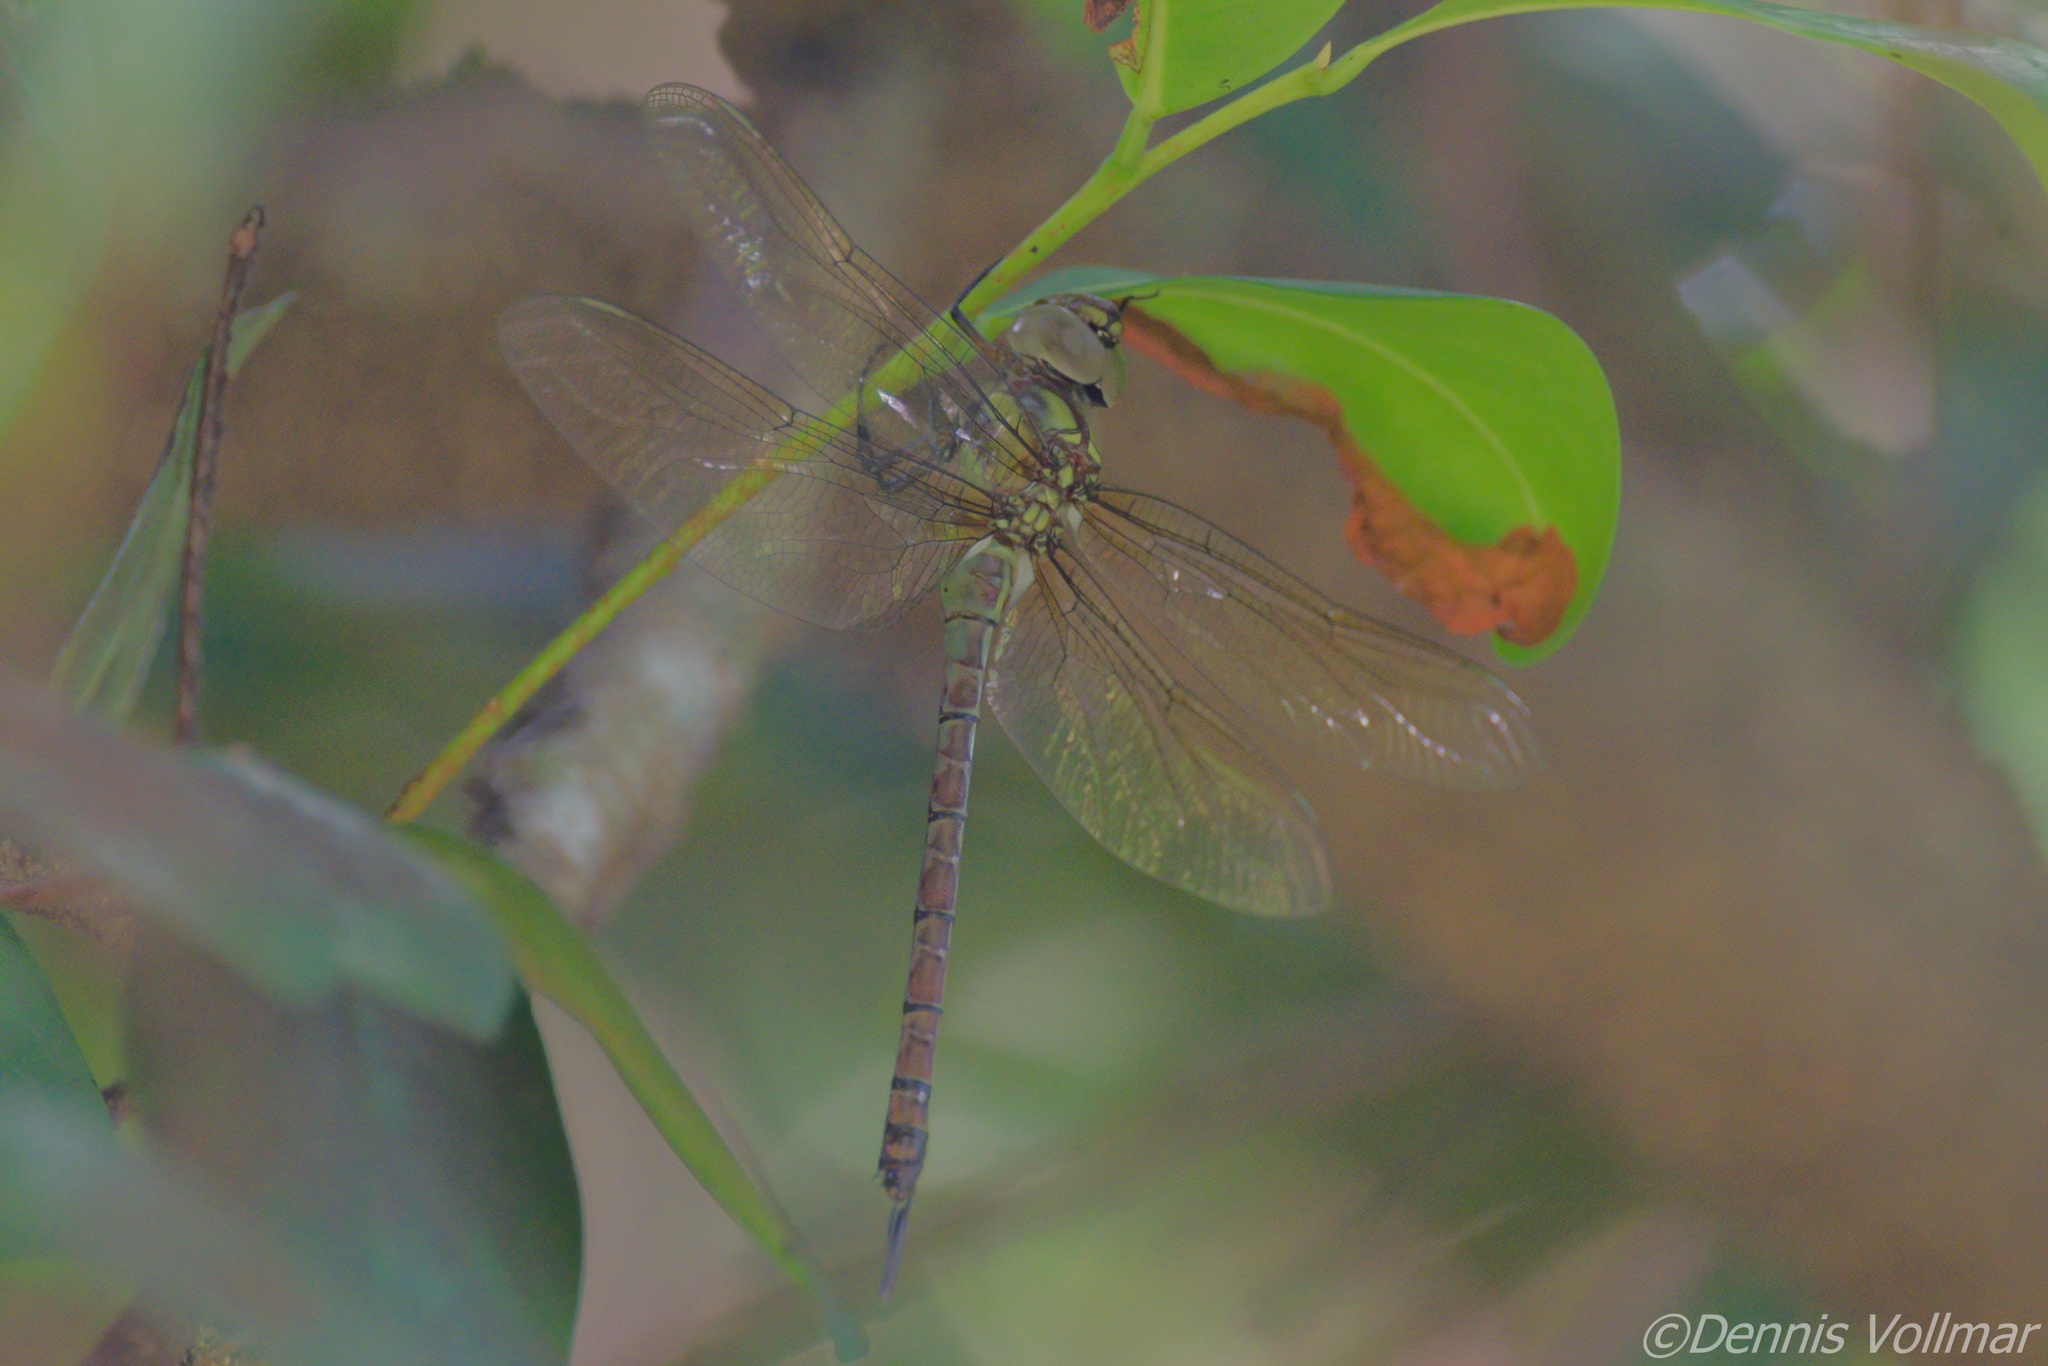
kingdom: Animalia
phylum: Arthropoda
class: Insecta
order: Odonata
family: Aeshnidae
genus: Coryphaeschna
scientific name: Coryphaeschna ingens
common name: Regal darner
